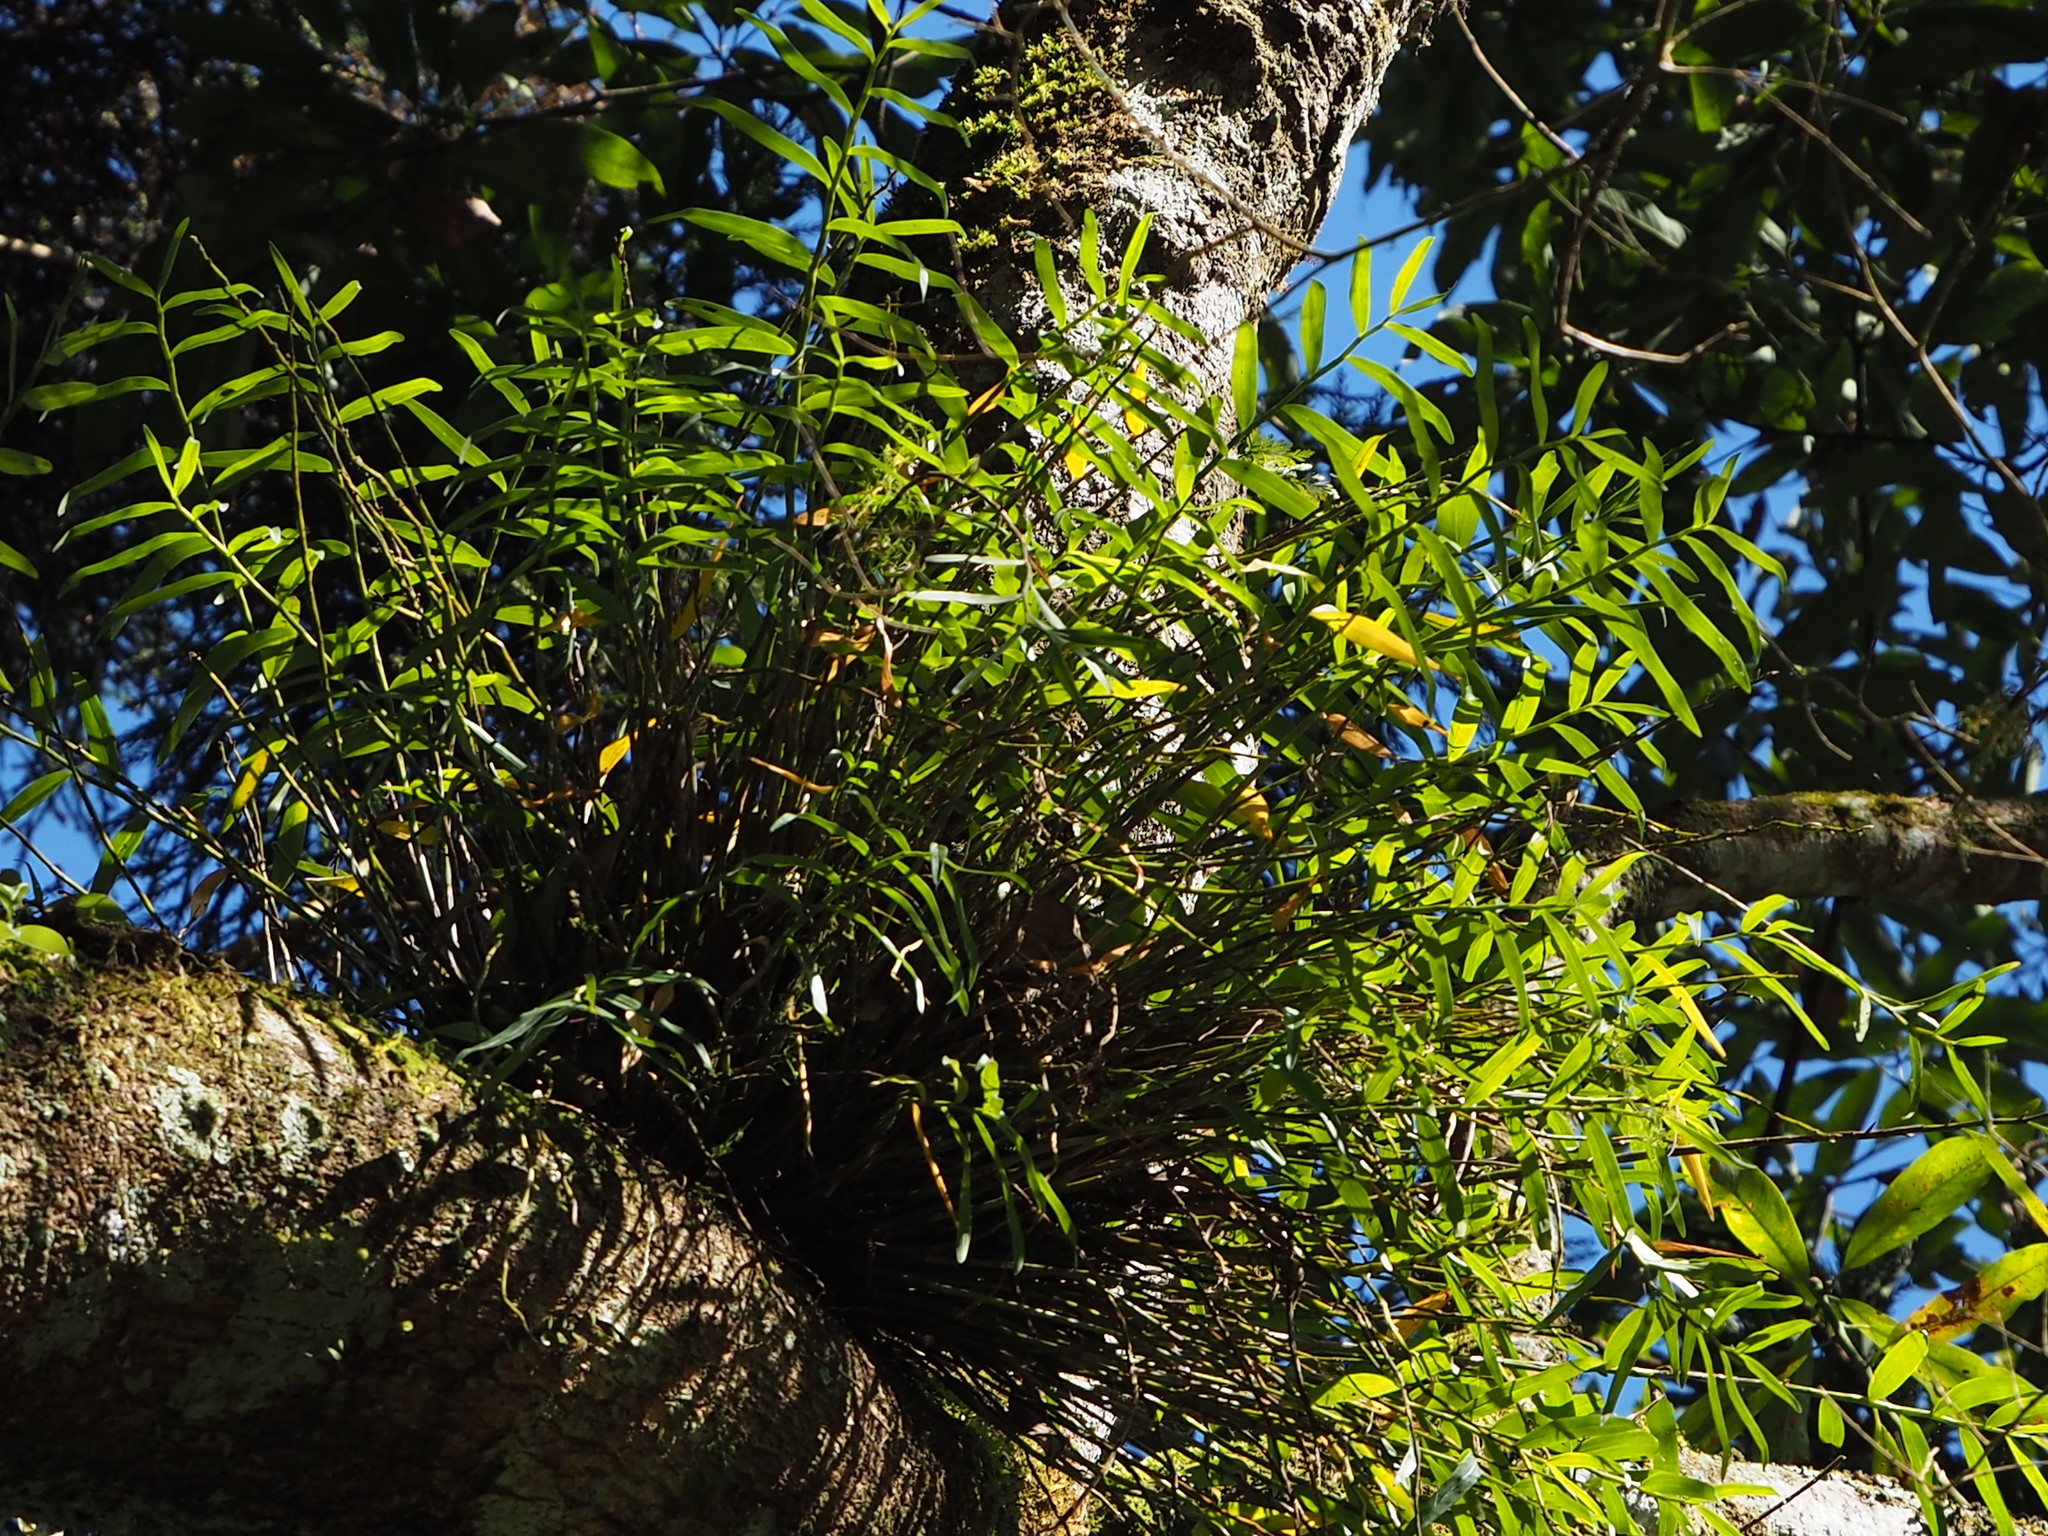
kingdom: Plantae
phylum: Tracheophyta
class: Liliopsida
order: Asparagales
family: Orchidaceae
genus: Dendrobium
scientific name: Dendrobium chryseum
